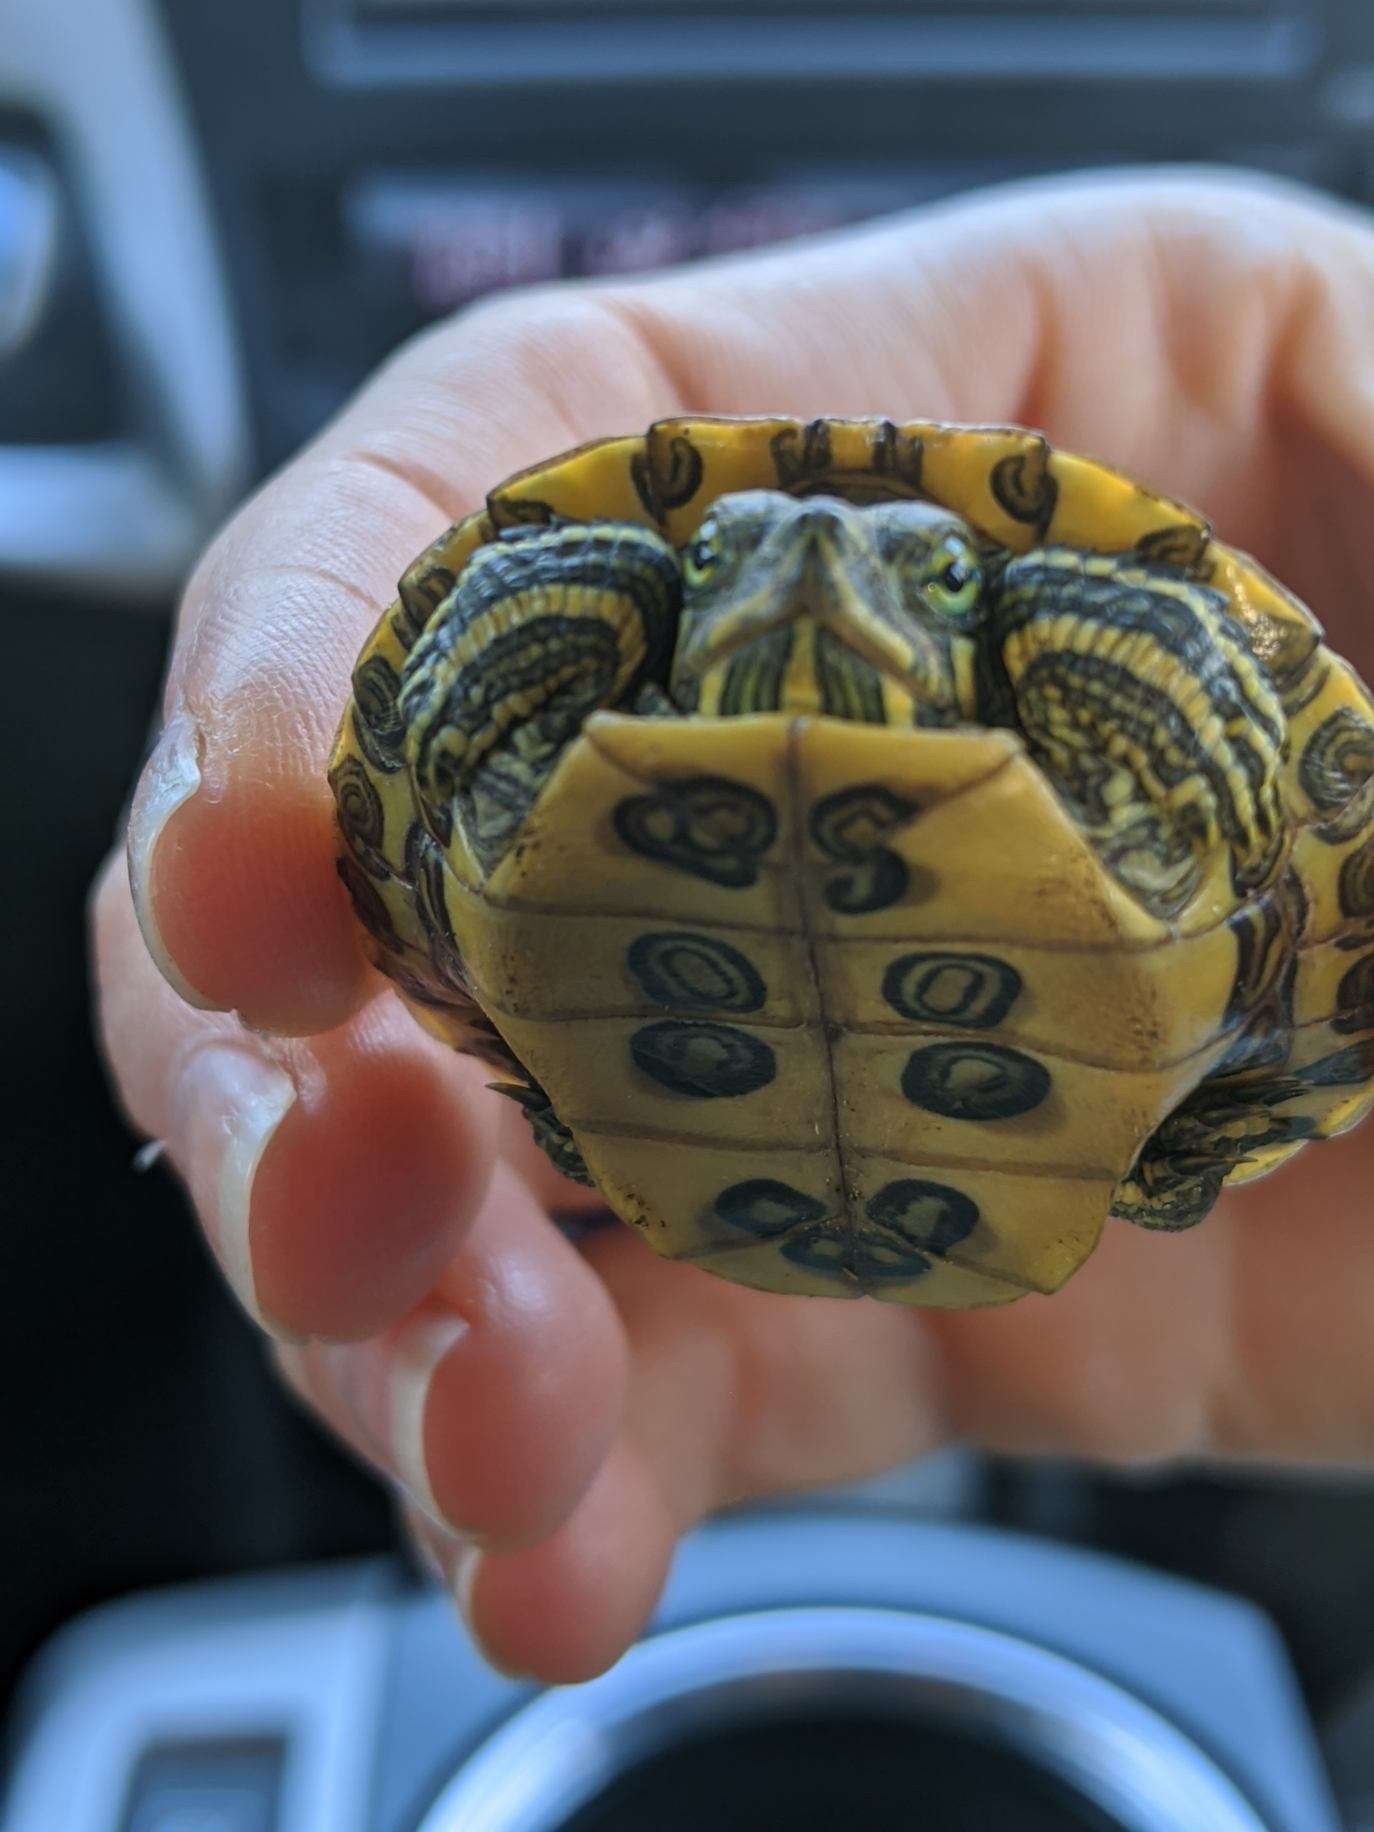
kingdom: Animalia
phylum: Chordata
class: Testudines
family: Emydidae
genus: Trachemys
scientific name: Trachemys scripta
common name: Slider
